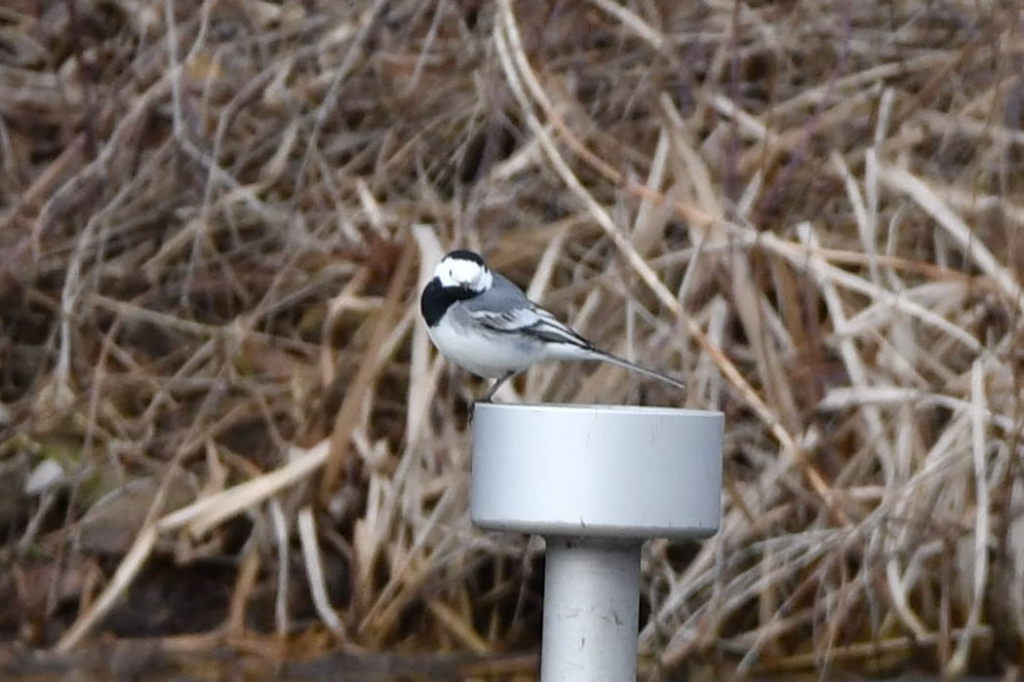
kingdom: Animalia
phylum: Chordata
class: Aves
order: Passeriformes
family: Motacillidae
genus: Motacilla
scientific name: Motacilla alba
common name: White wagtail
